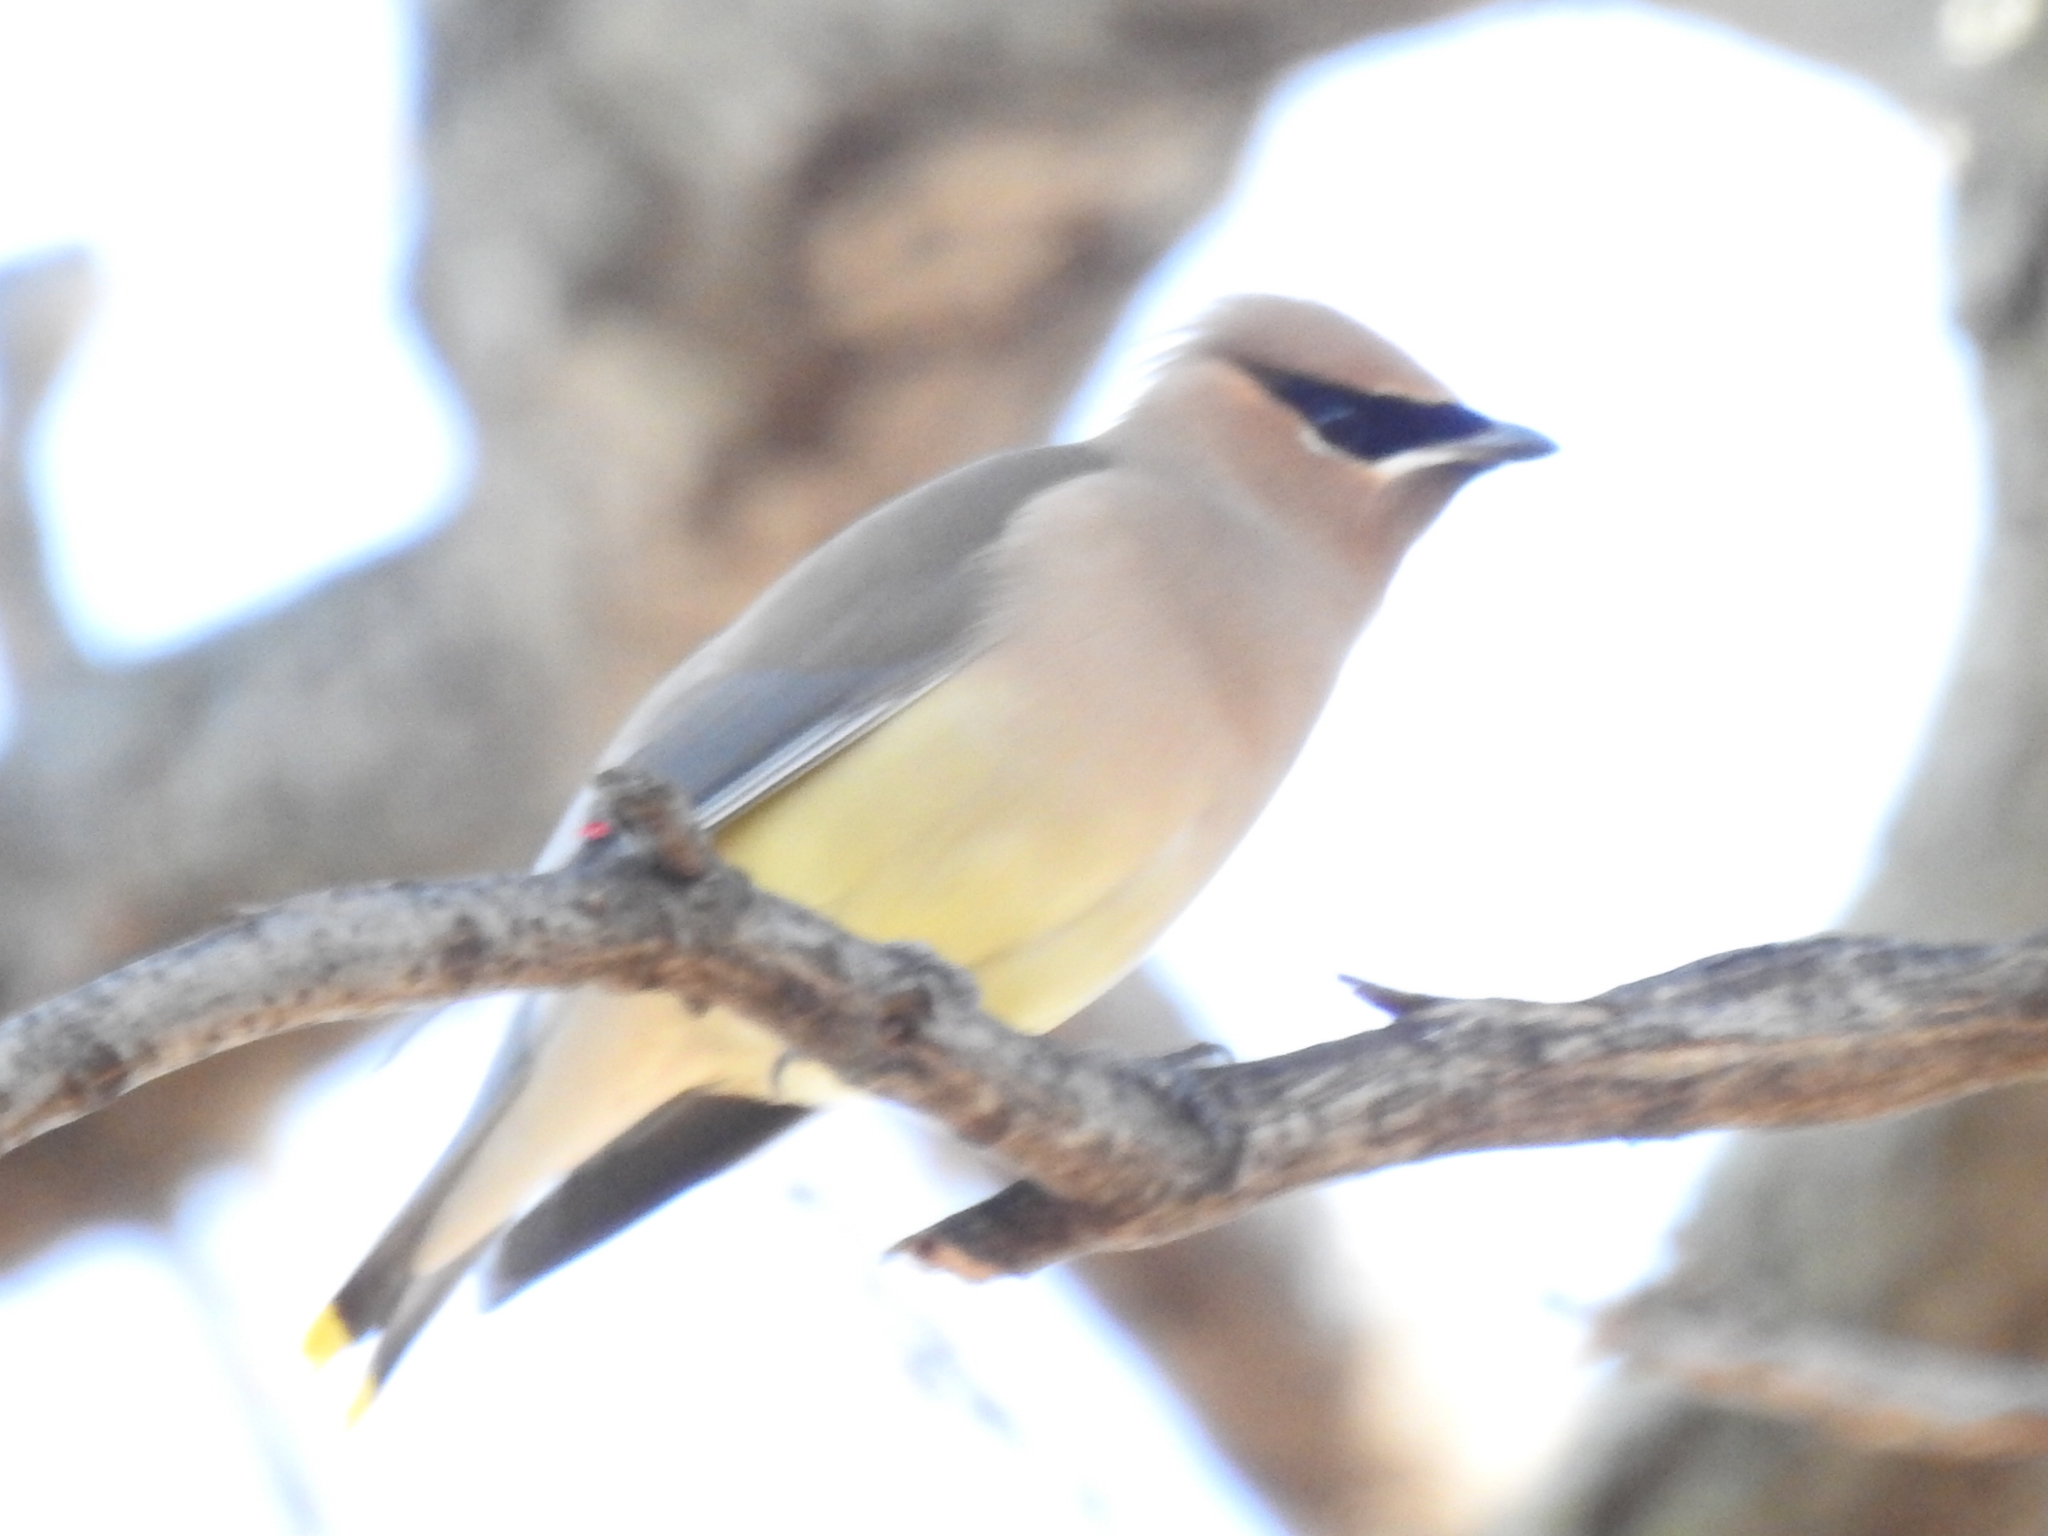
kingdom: Animalia
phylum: Chordata
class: Aves
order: Passeriformes
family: Bombycillidae
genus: Bombycilla
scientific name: Bombycilla cedrorum
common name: Cedar waxwing
